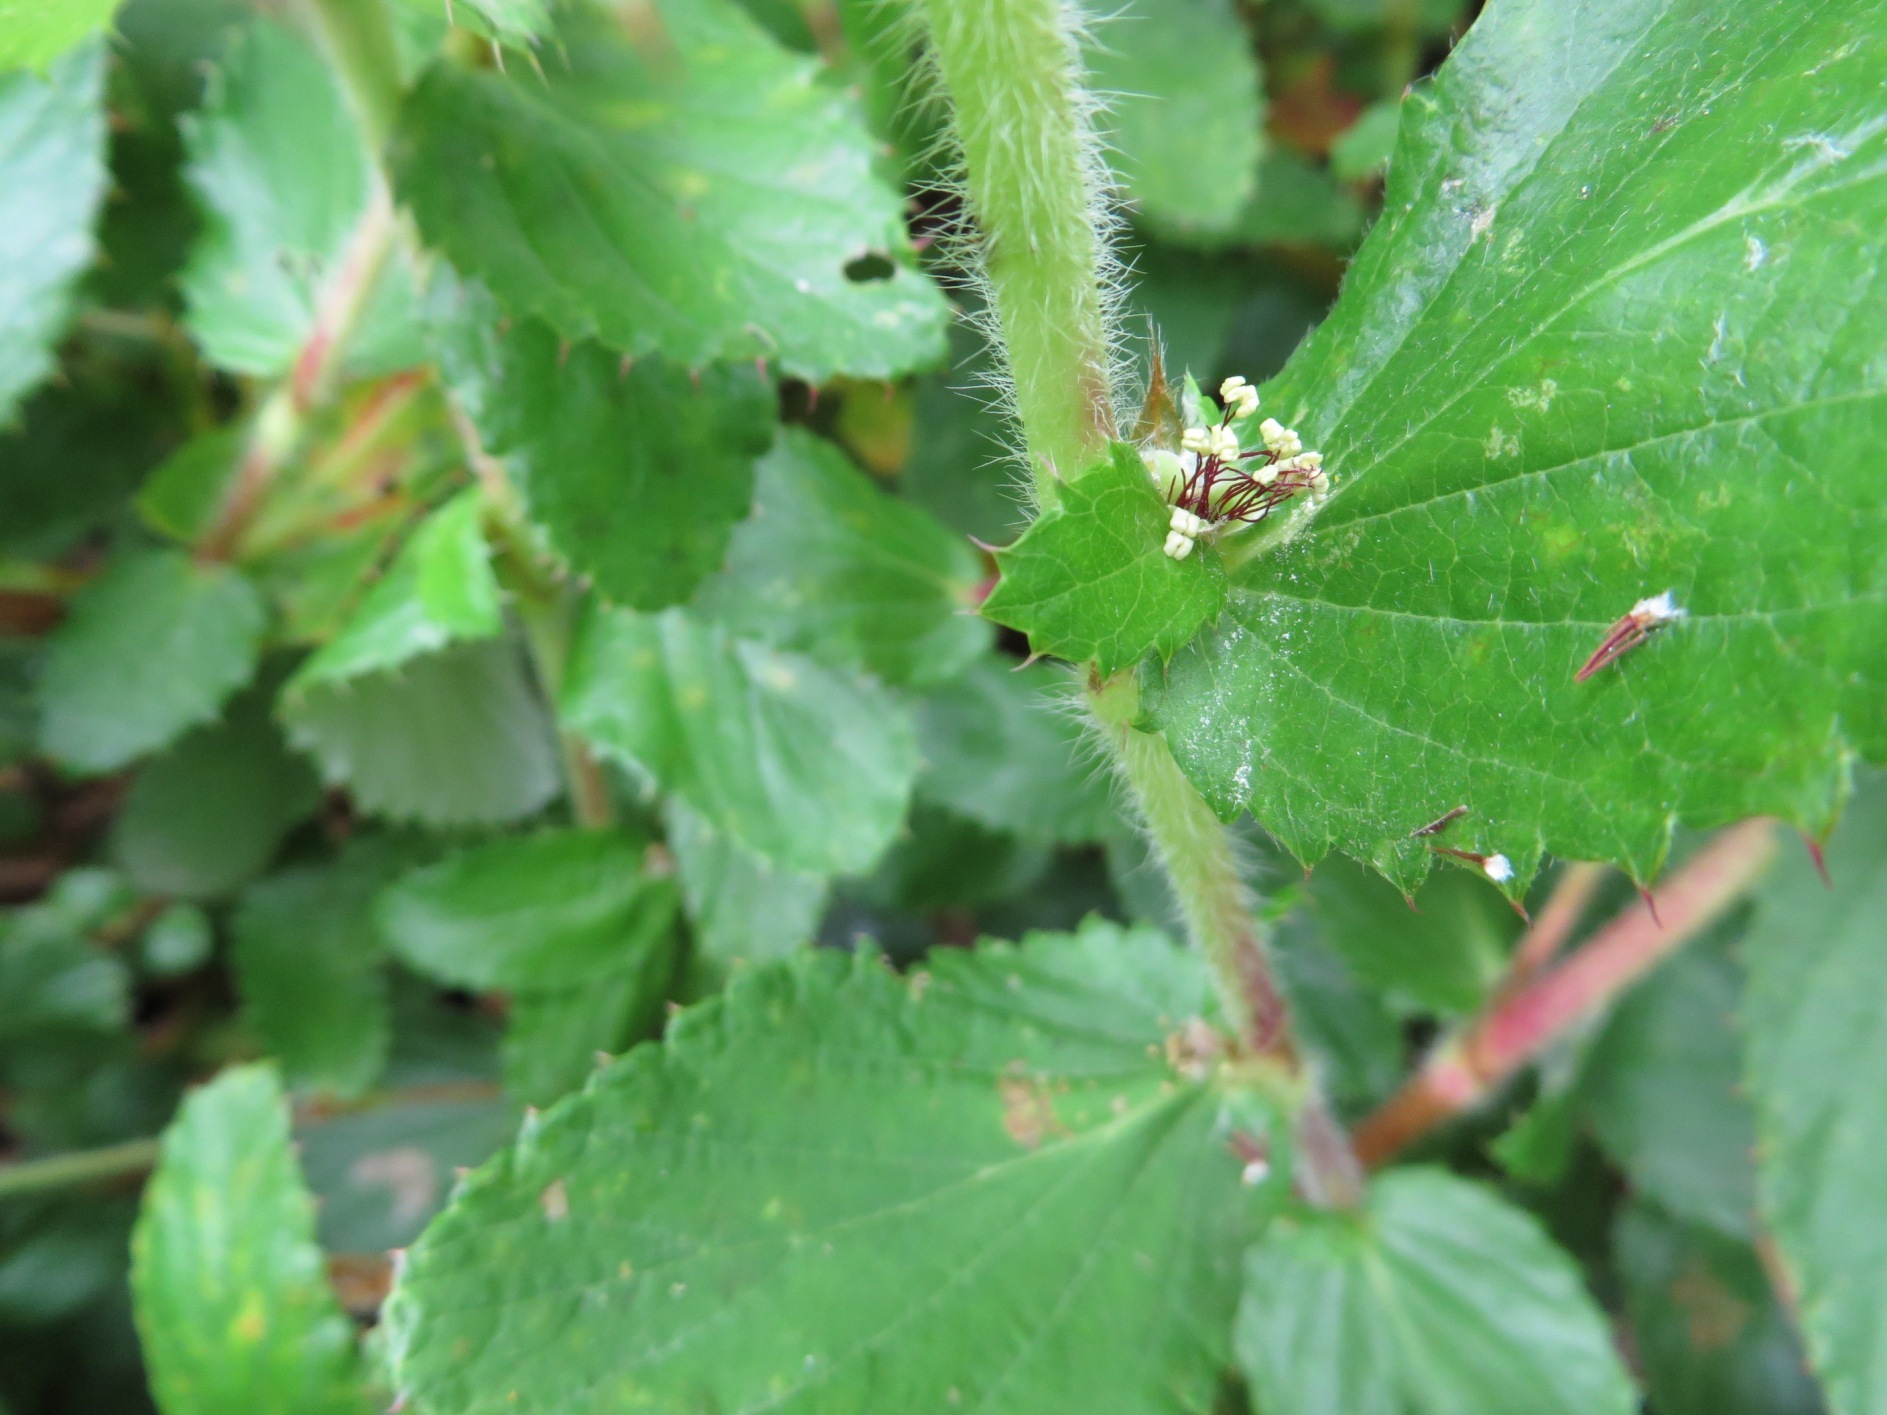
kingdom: Plantae
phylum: Tracheophyta
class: Magnoliopsida
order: Rosales
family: Rosaceae
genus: Cliffortia
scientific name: Cliffortia hirsuta
